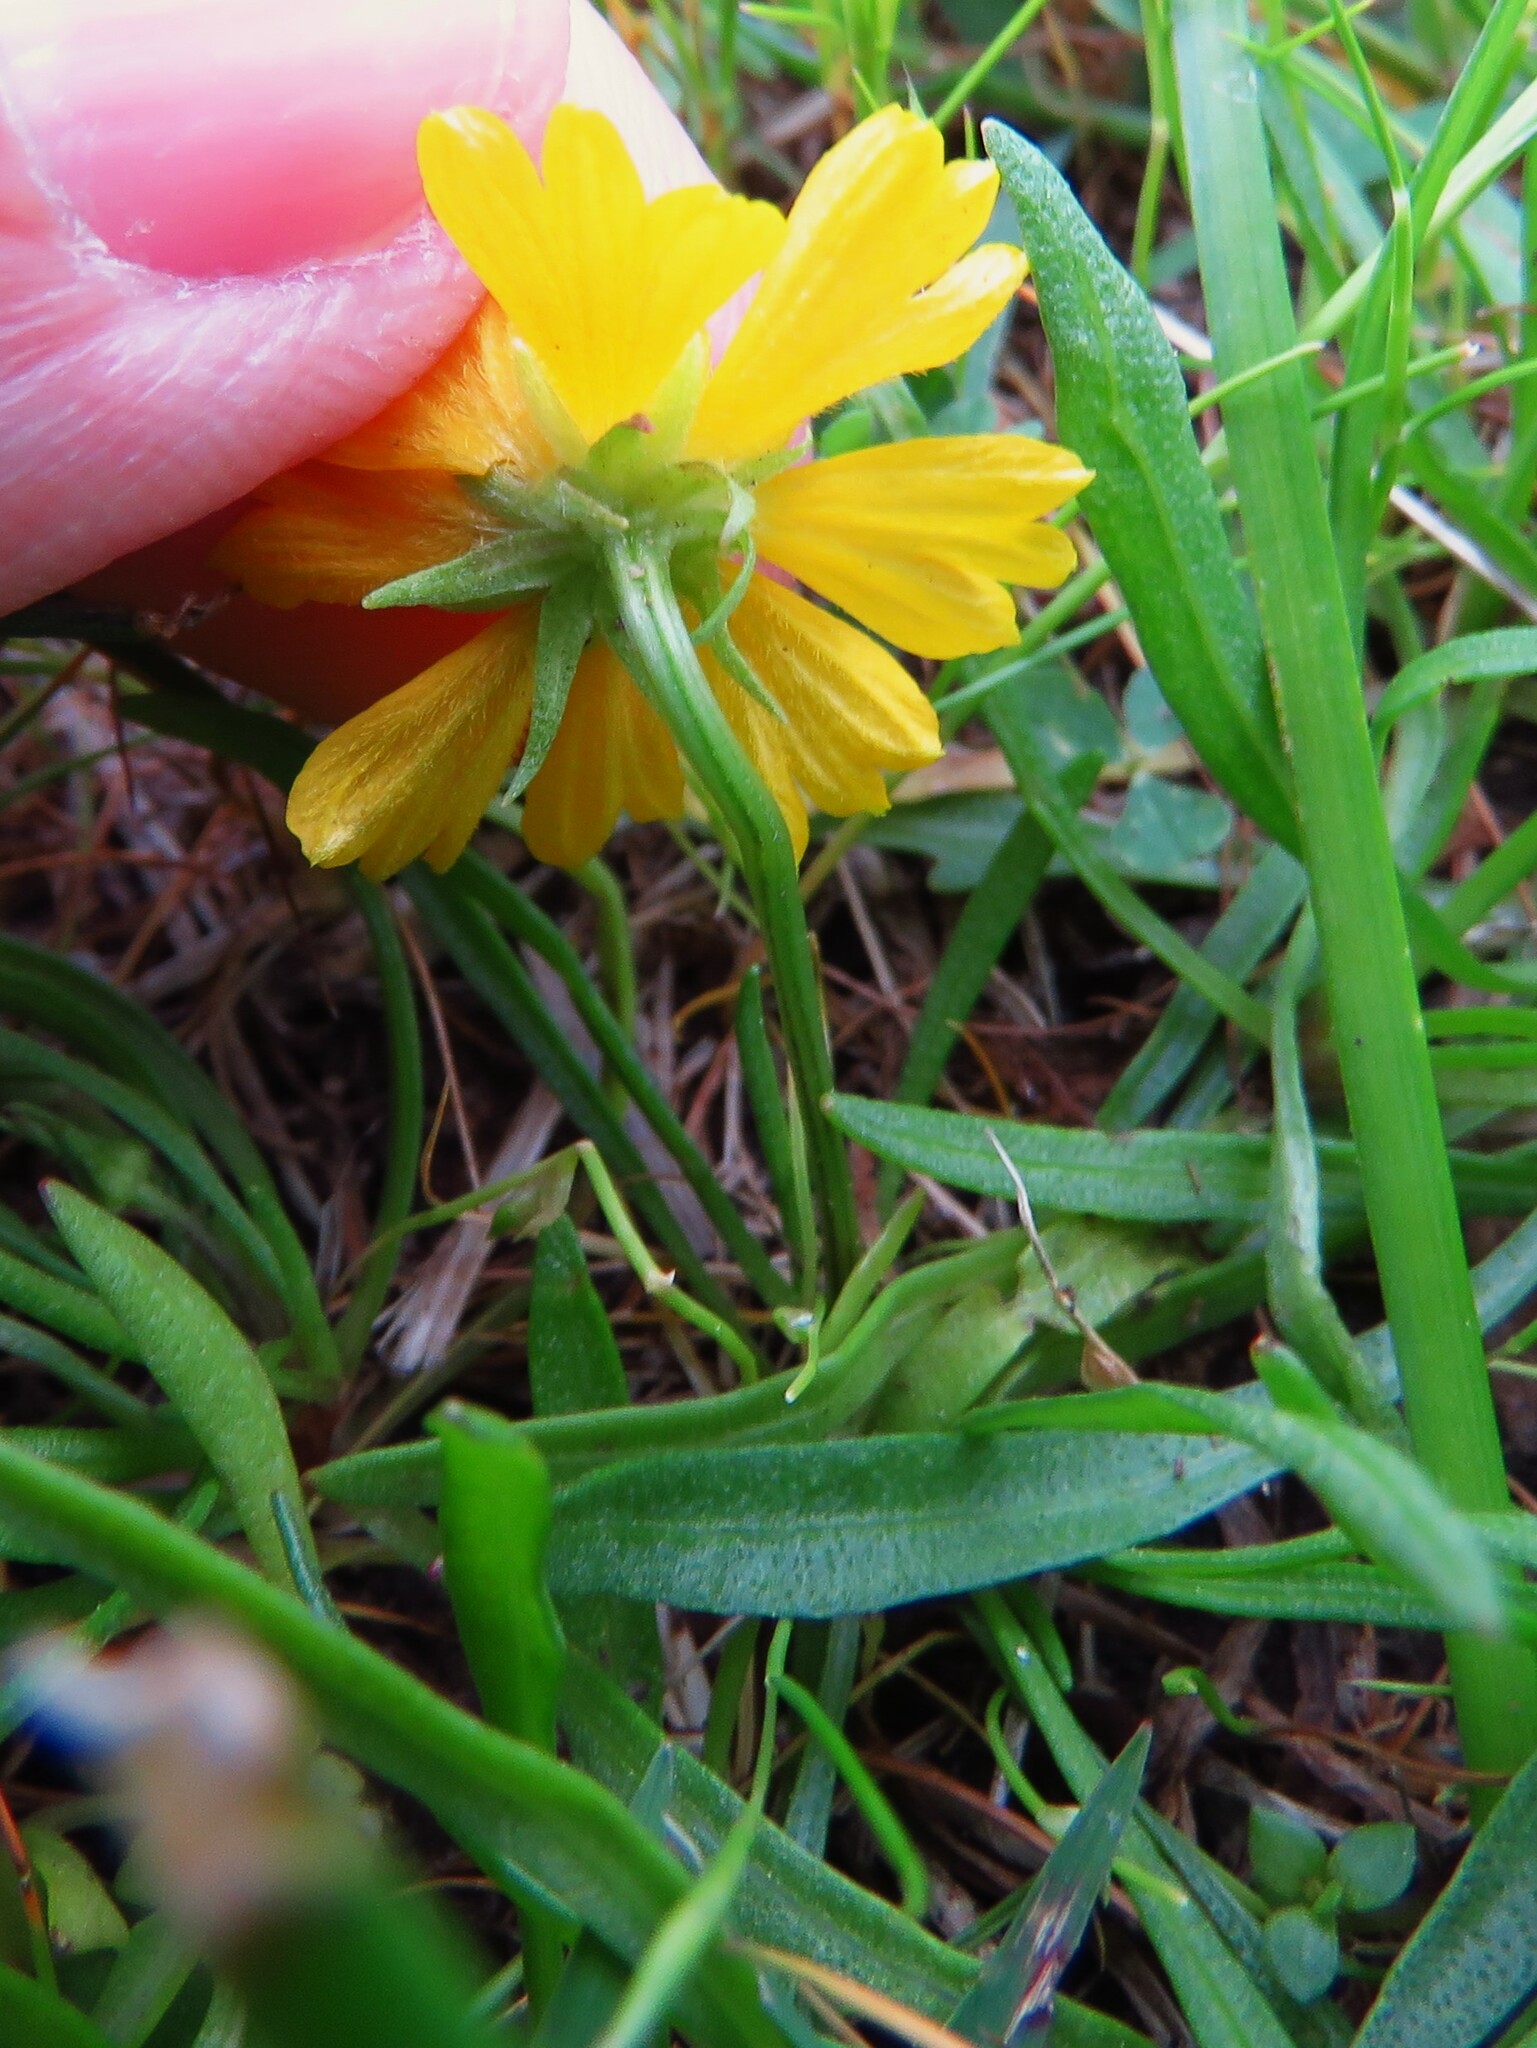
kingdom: Plantae
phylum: Tracheophyta
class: Magnoliopsida
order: Asterales
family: Asteraceae
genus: Helenium
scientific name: Helenium amarum
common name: Bitter sneezeweed
